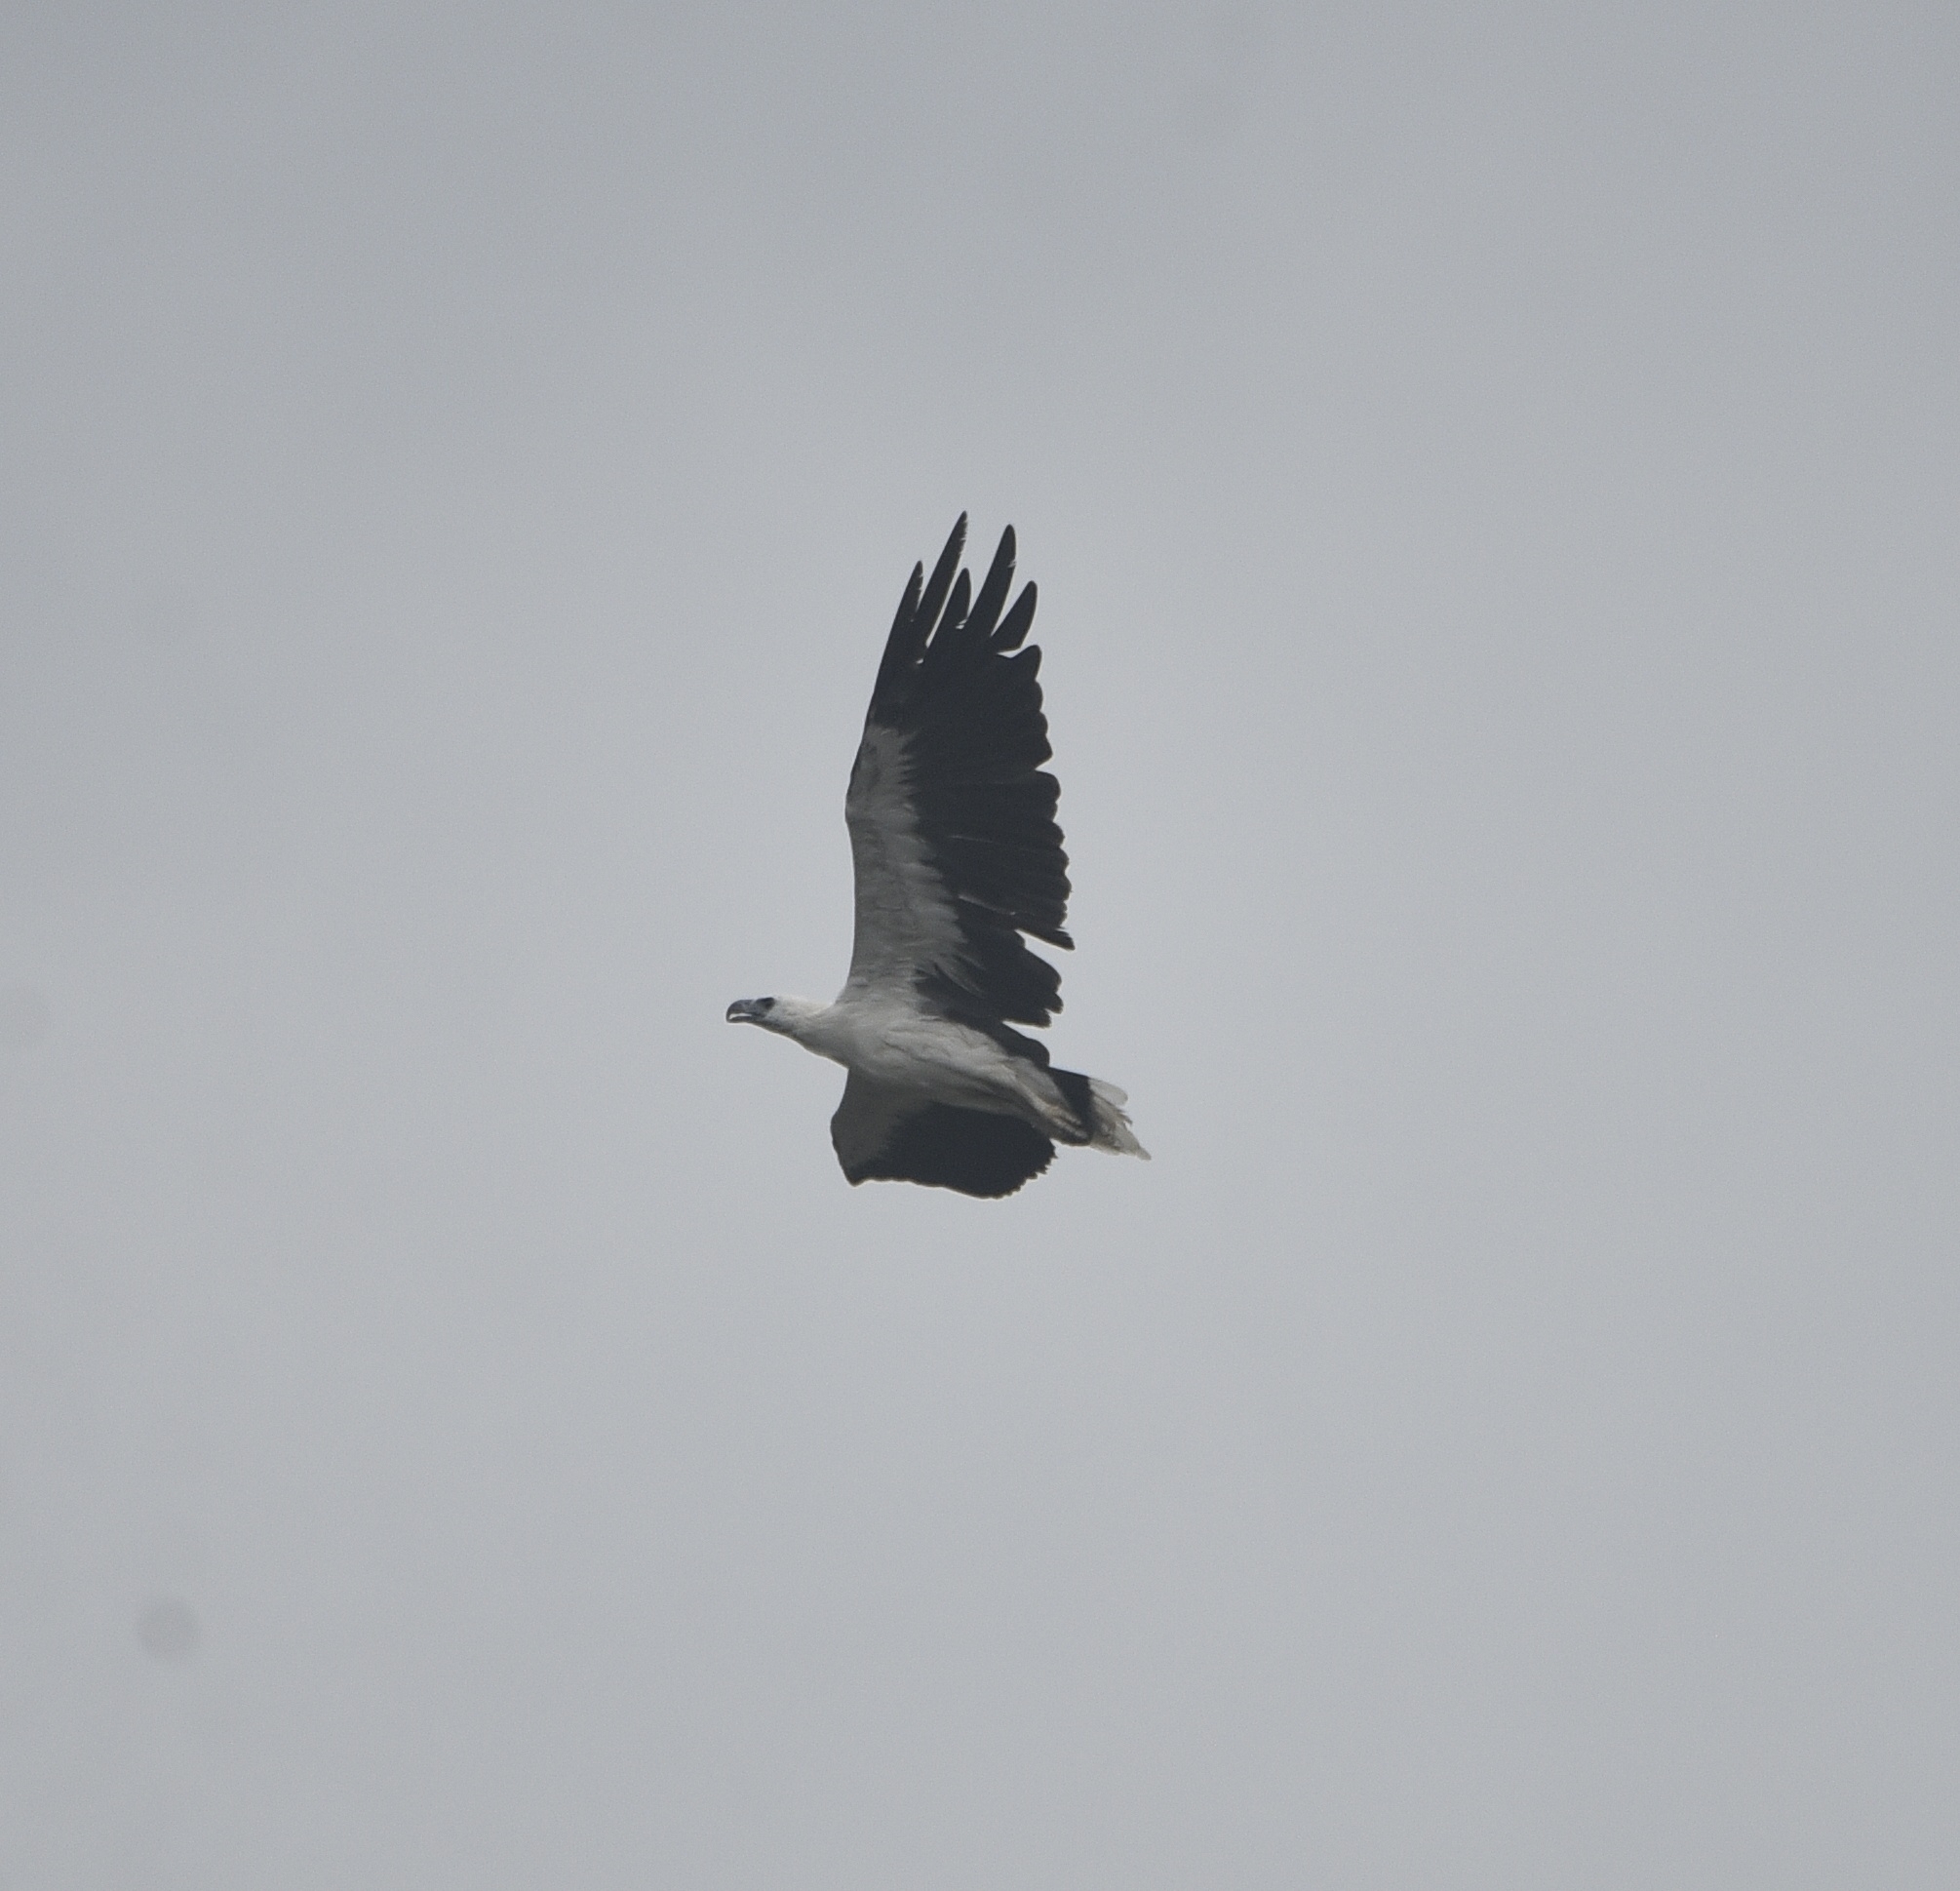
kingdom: Animalia
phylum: Chordata
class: Aves
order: Accipitriformes
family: Accipitridae
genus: Haliaeetus
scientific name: Haliaeetus leucogaster
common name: White-bellied sea eagle
